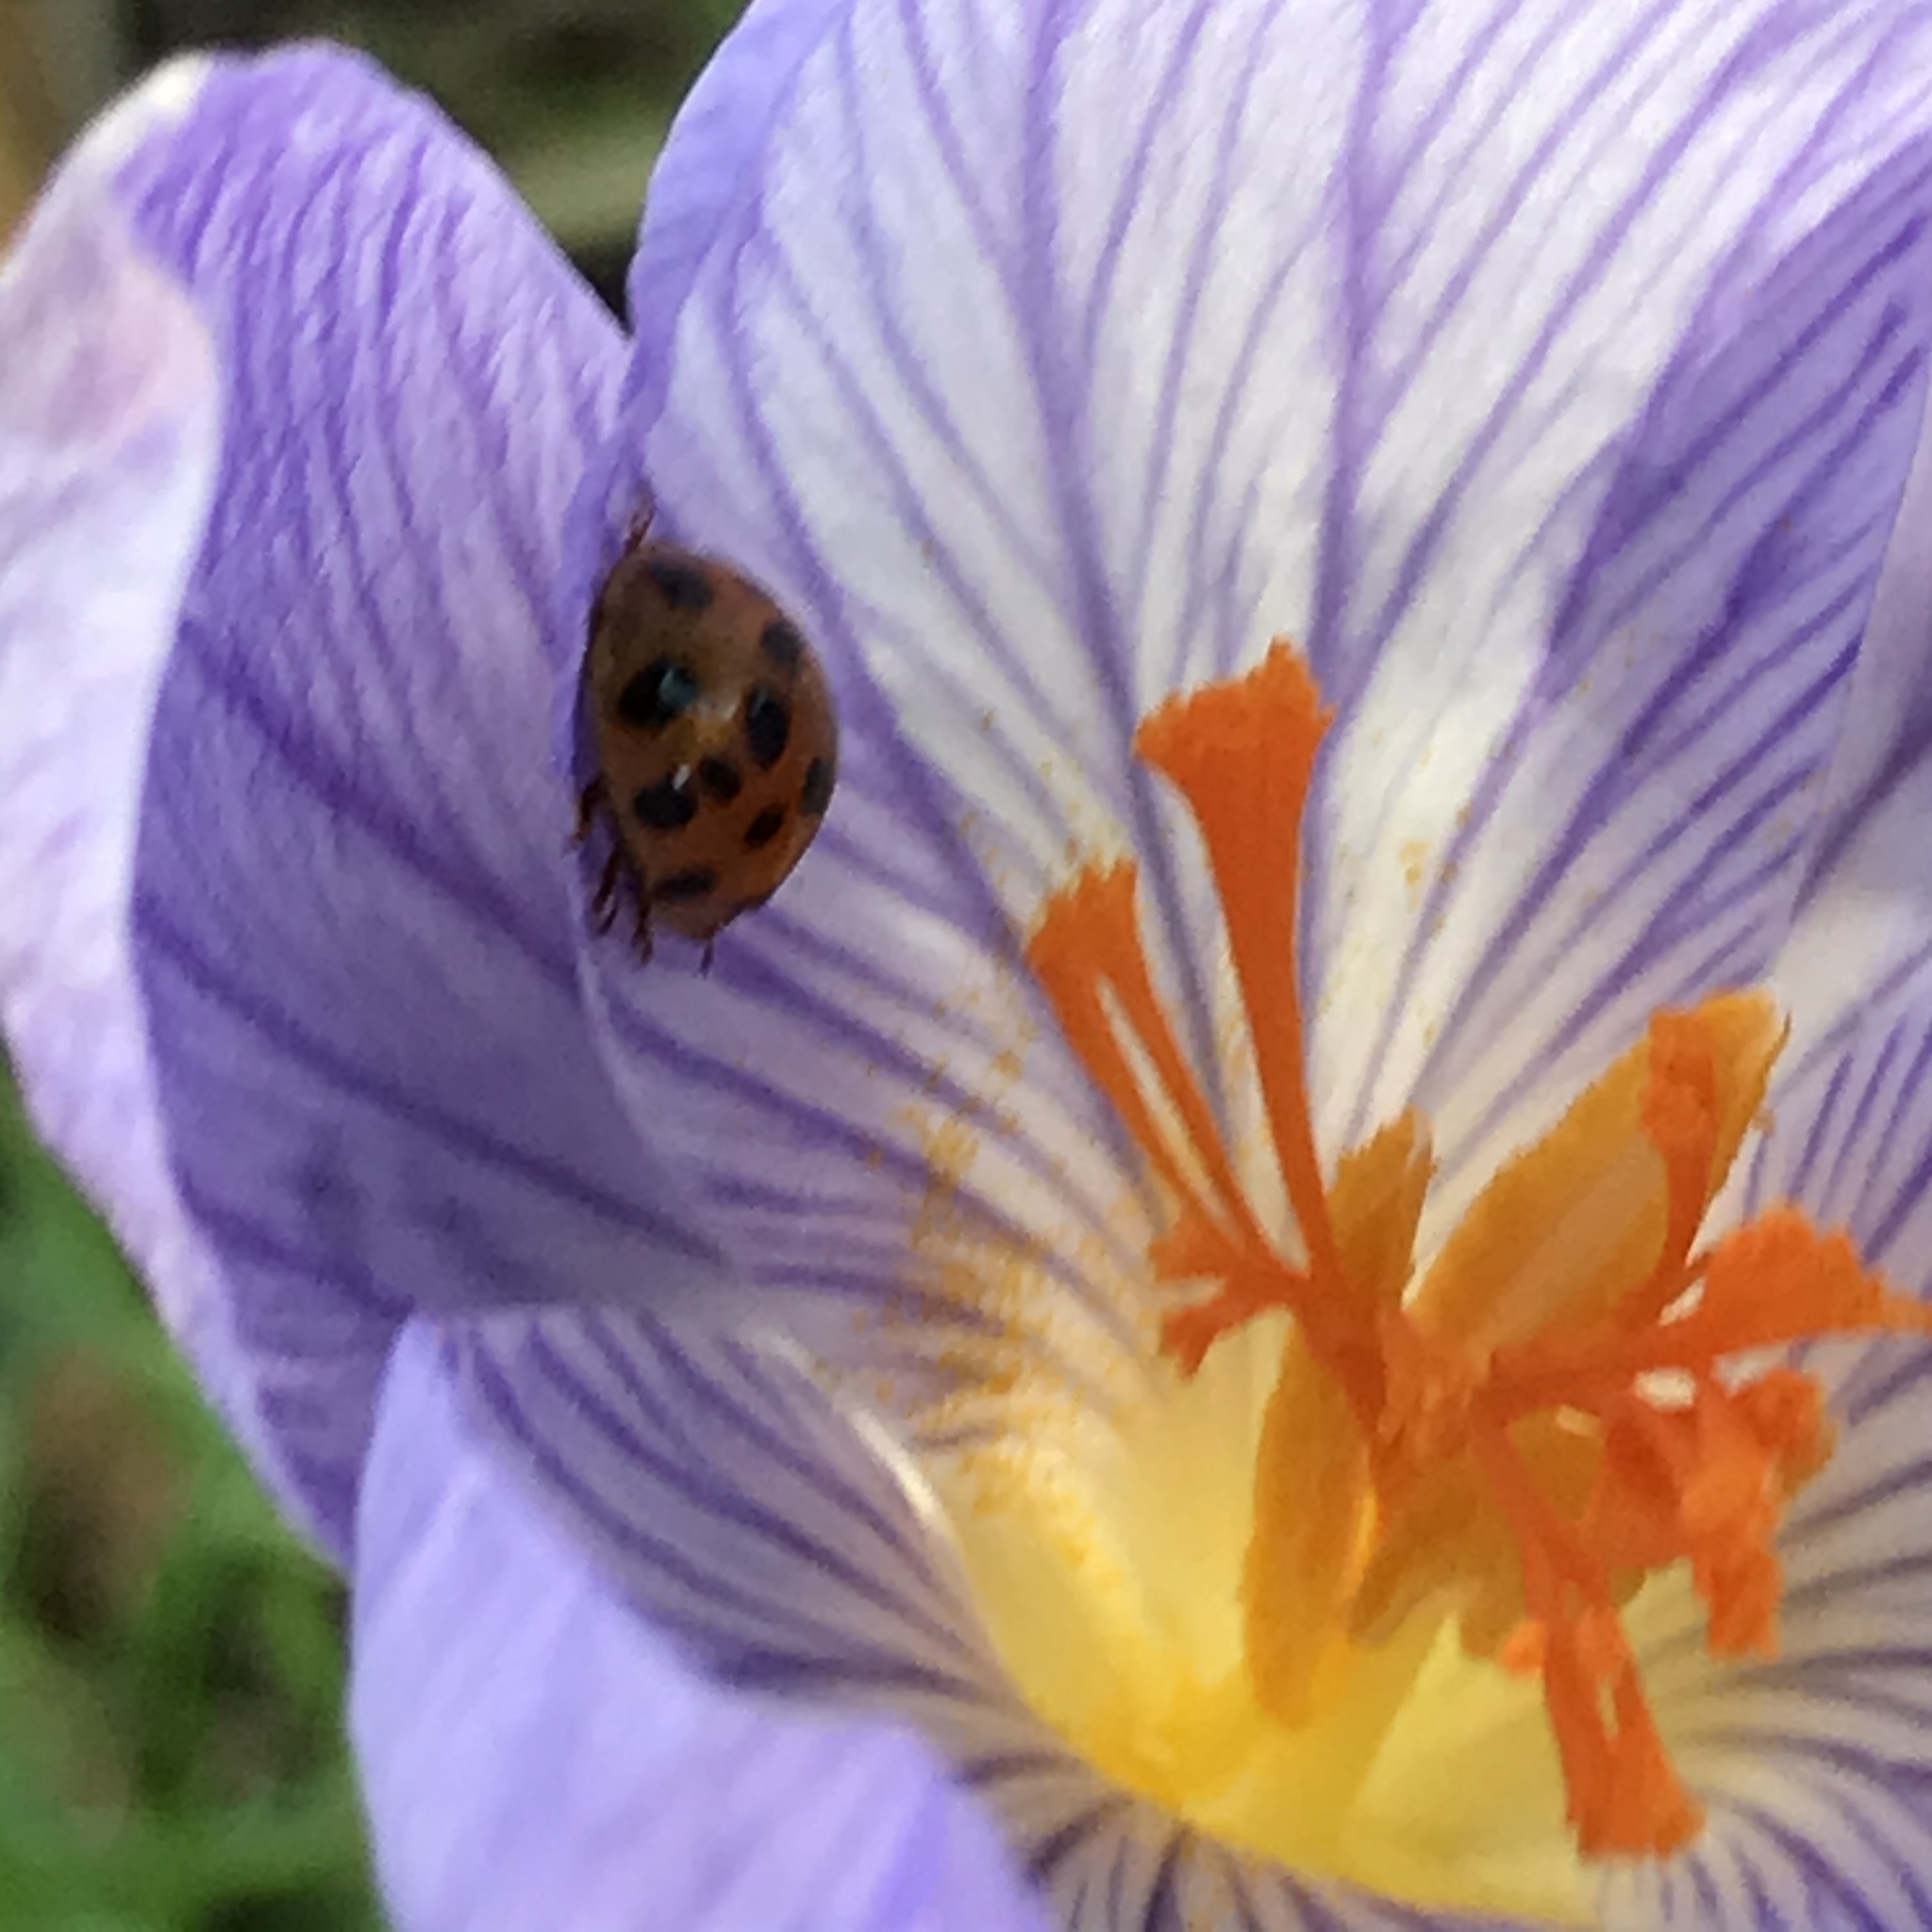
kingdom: Animalia
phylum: Arthropoda
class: Insecta
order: Coleoptera
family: Coccinellidae
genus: Harmonia
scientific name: Harmonia axyridis
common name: Harlequin ladybird
